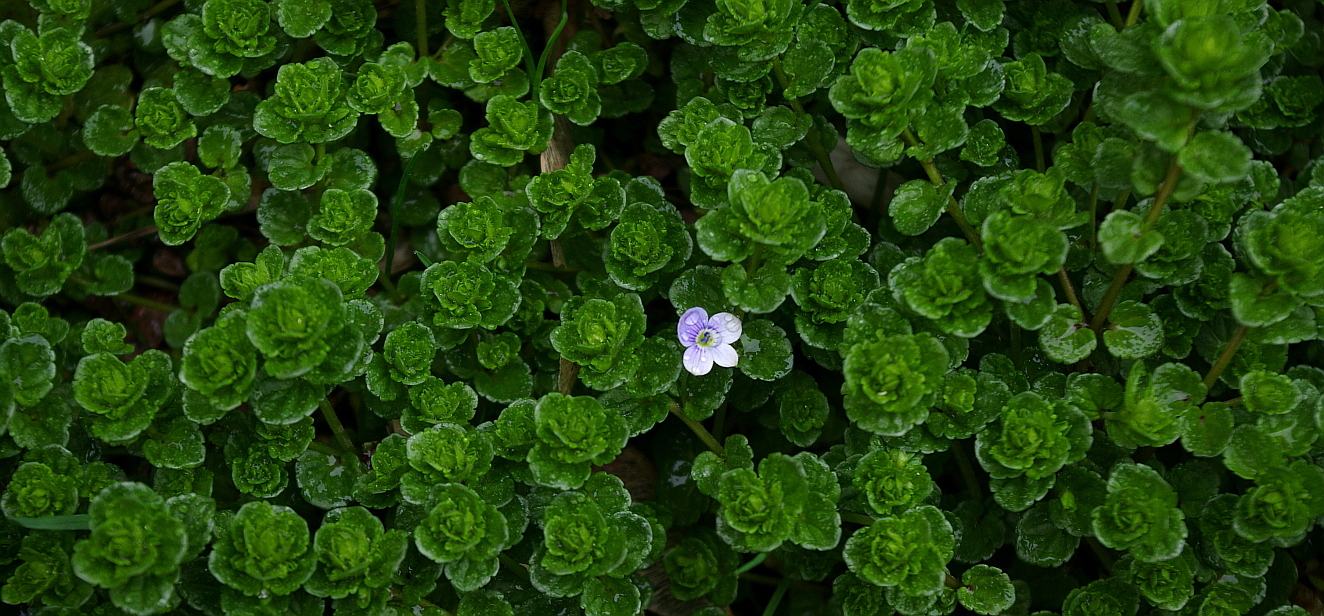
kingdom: Plantae
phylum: Tracheophyta
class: Magnoliopsida
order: Lamiales
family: Plantaginaceae
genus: Veronica
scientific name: Veronica filiformis
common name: Slender speedwell
